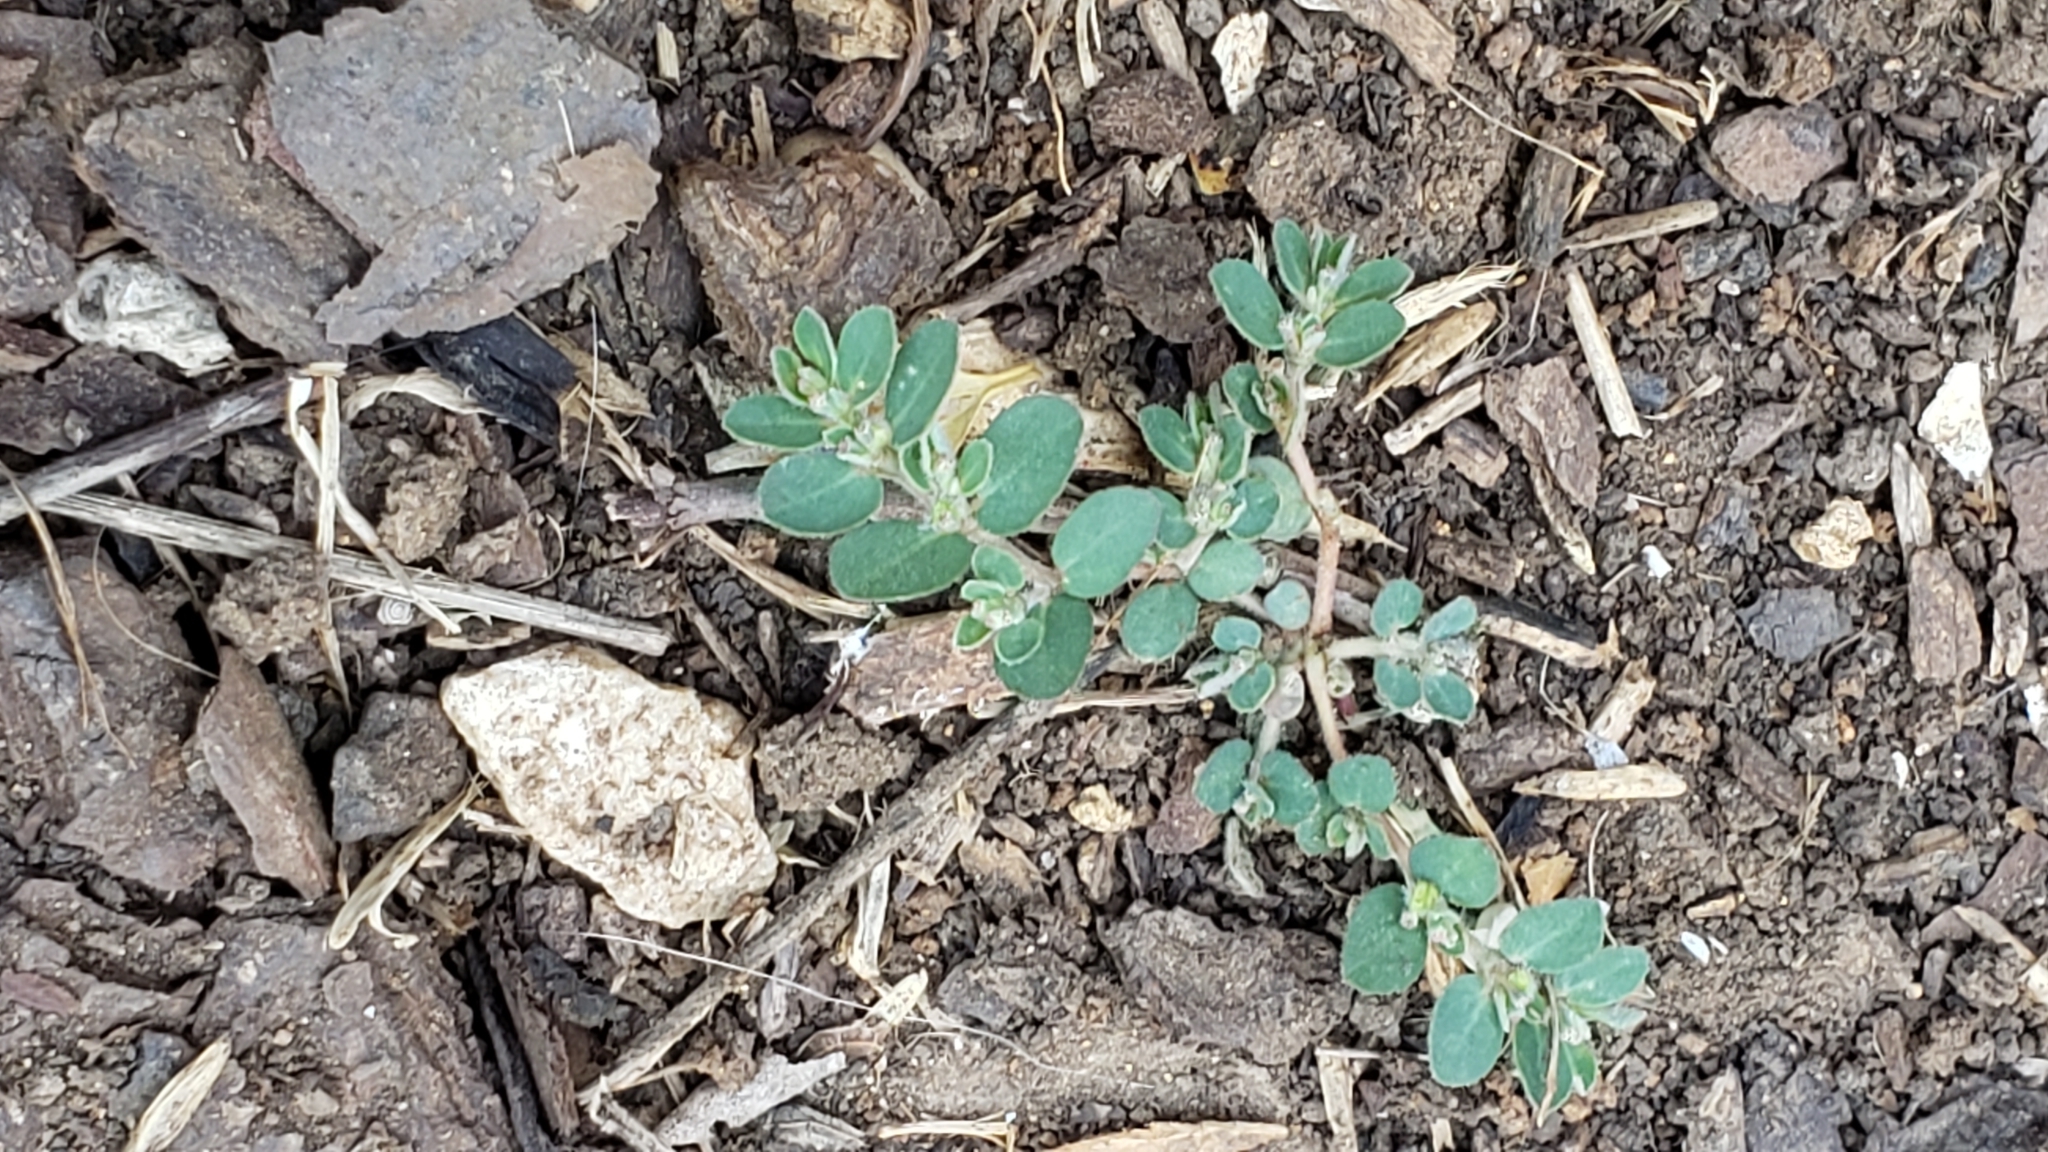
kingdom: Plantae
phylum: Tracheophyta
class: Magnoliopsida
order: Malpighiales
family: Euphorbiaceae
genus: Euphorbia
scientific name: Euphorbia prostrata
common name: Prostrate sandmat
